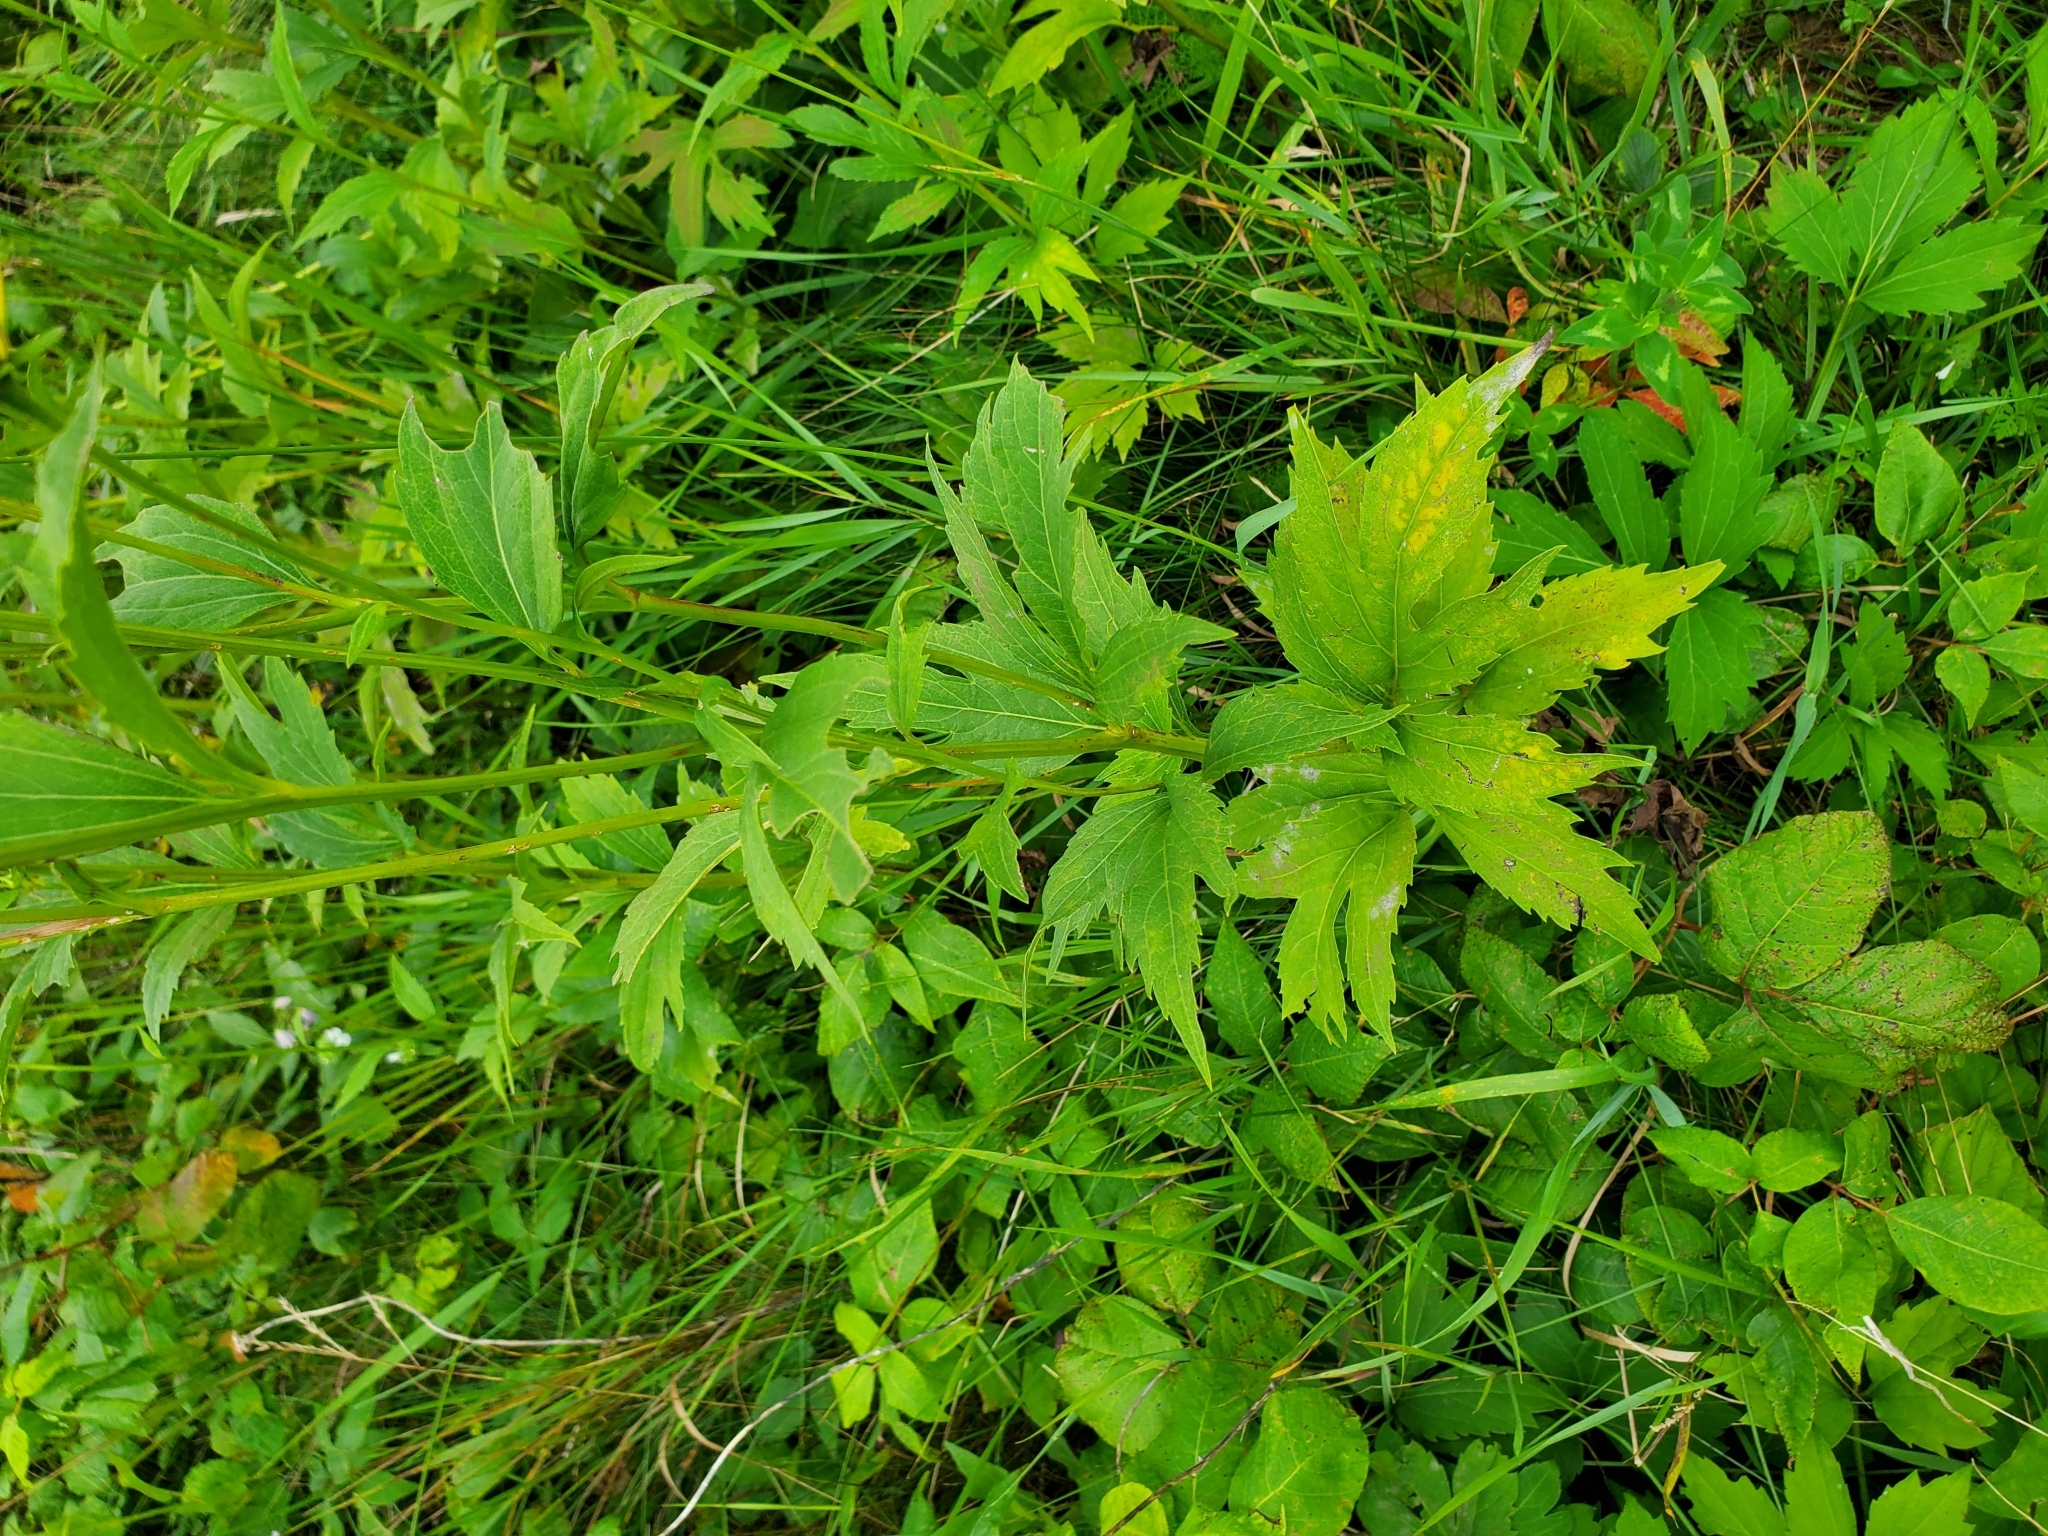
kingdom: Plantae
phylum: Tracheophyta
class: Magnoliopsida
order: Asterales
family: Asteraceae
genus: Rudbeckia
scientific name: Rudbeckia laciniata
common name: Coneflower
